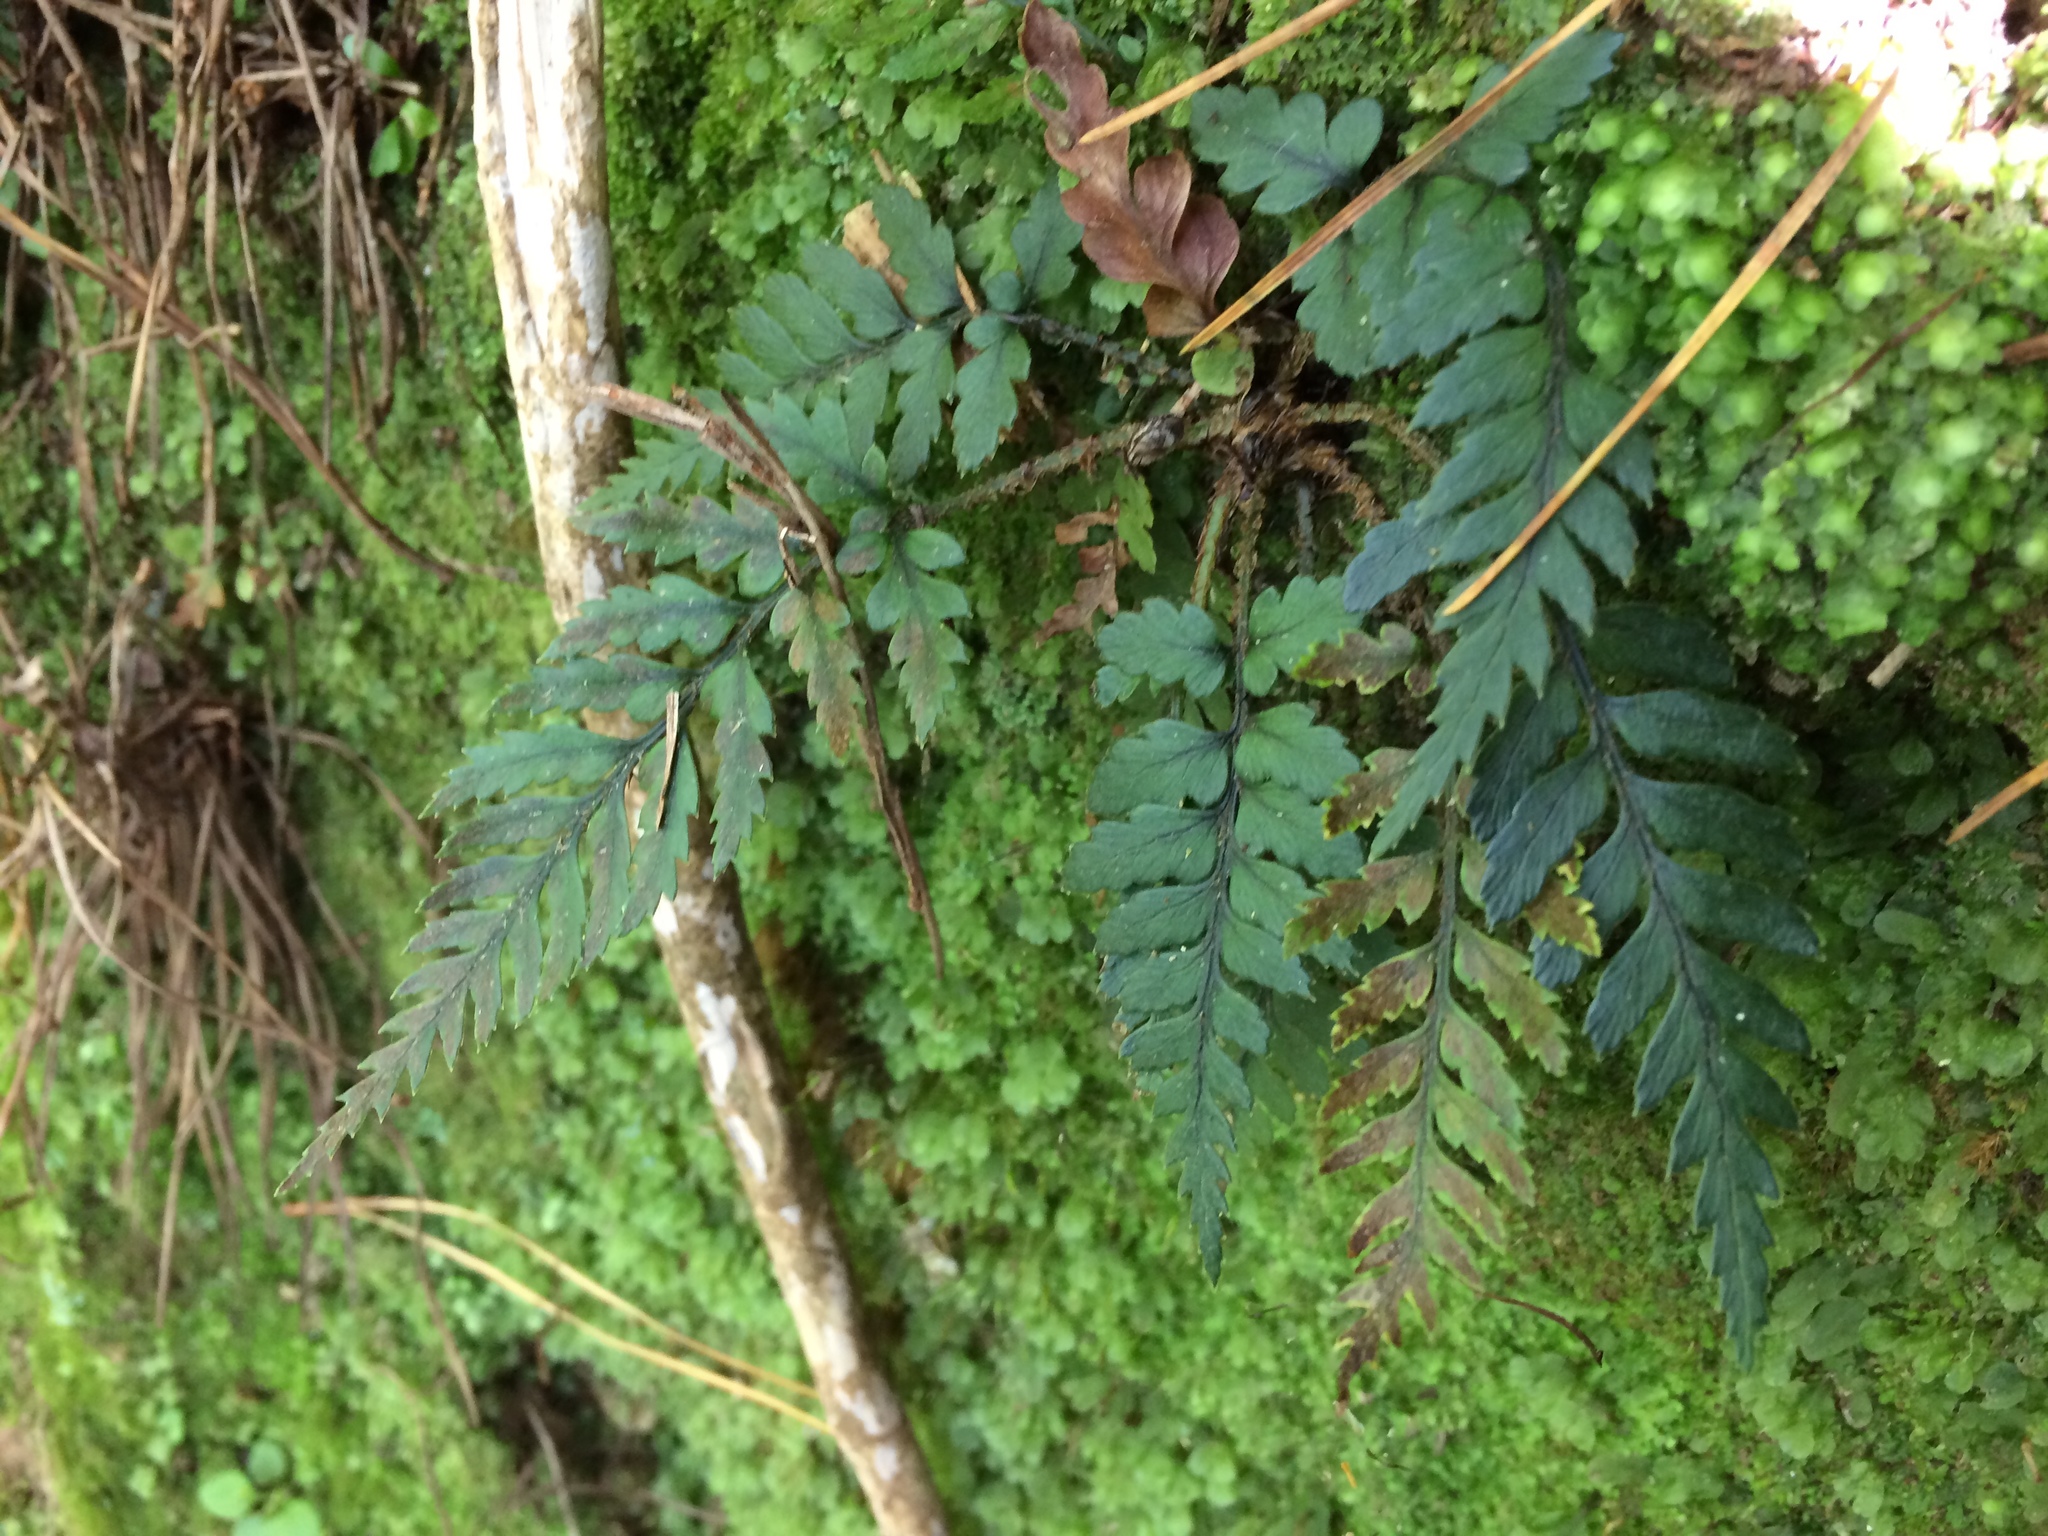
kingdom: Plantae
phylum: Tracheophyta
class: Polypodiopsida
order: Polypodiales
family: Dryopteridaceae
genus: Polystichum
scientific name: Polystichum neozelandicum
